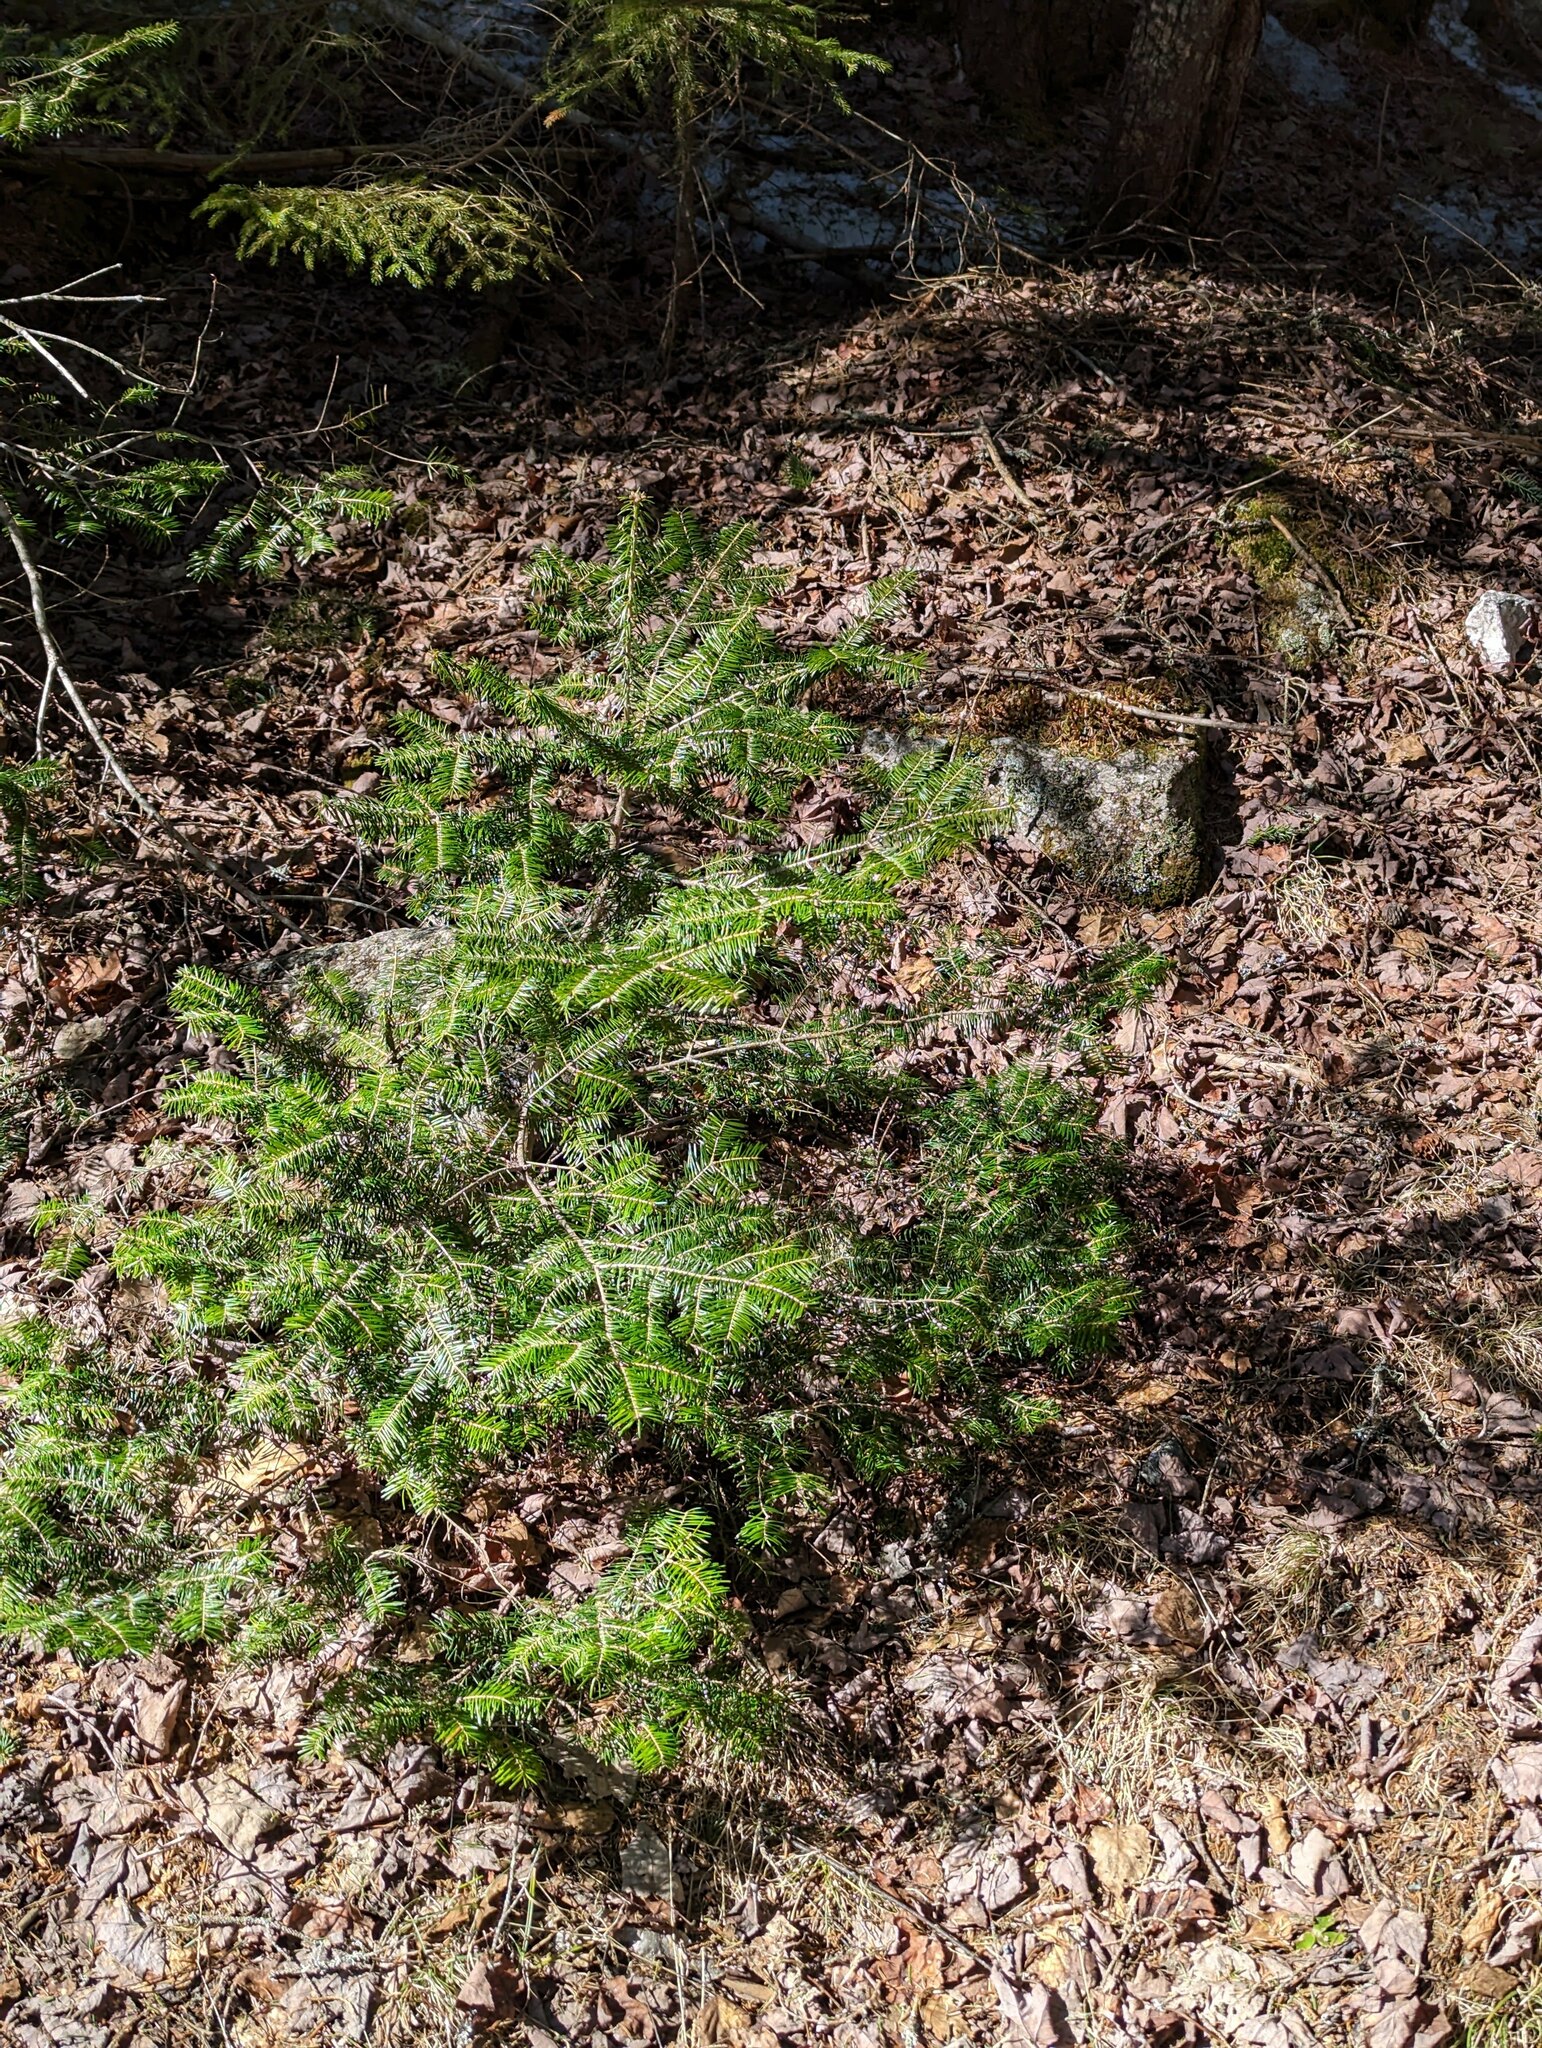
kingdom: Plantae
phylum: Tracheophyta
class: Pinopsida
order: Pinales
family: Pinaceae
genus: Abies
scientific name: Abies balsamea
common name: Balsam fir
